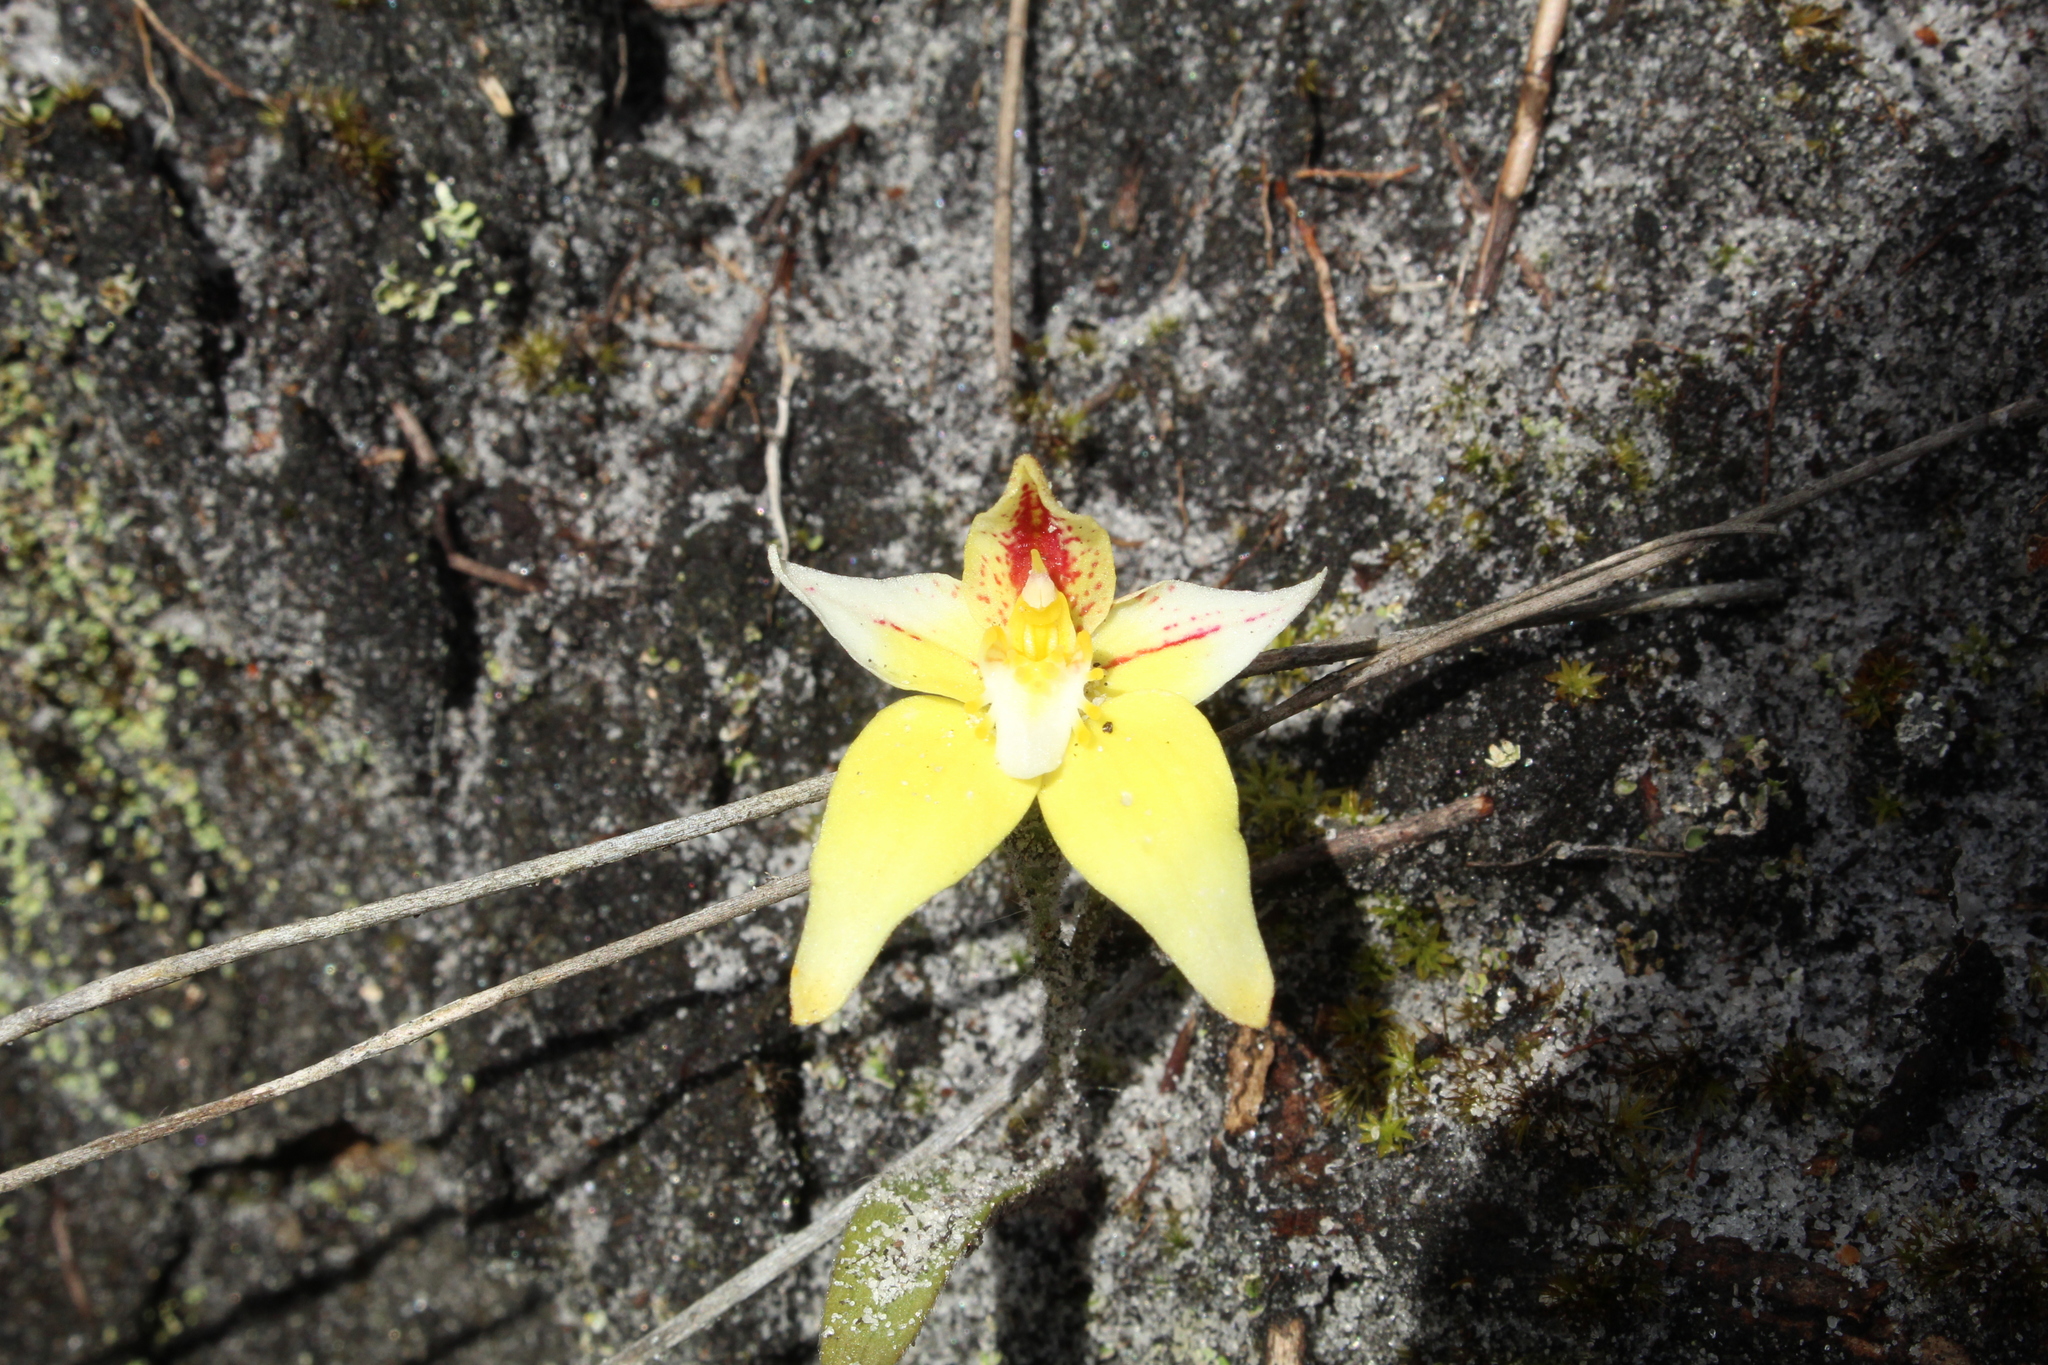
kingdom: Plantae
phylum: Tracheophyta
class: Liliopsida
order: Asparagales
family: Orchidaceae
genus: Caladenia
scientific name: Caladenia flava
